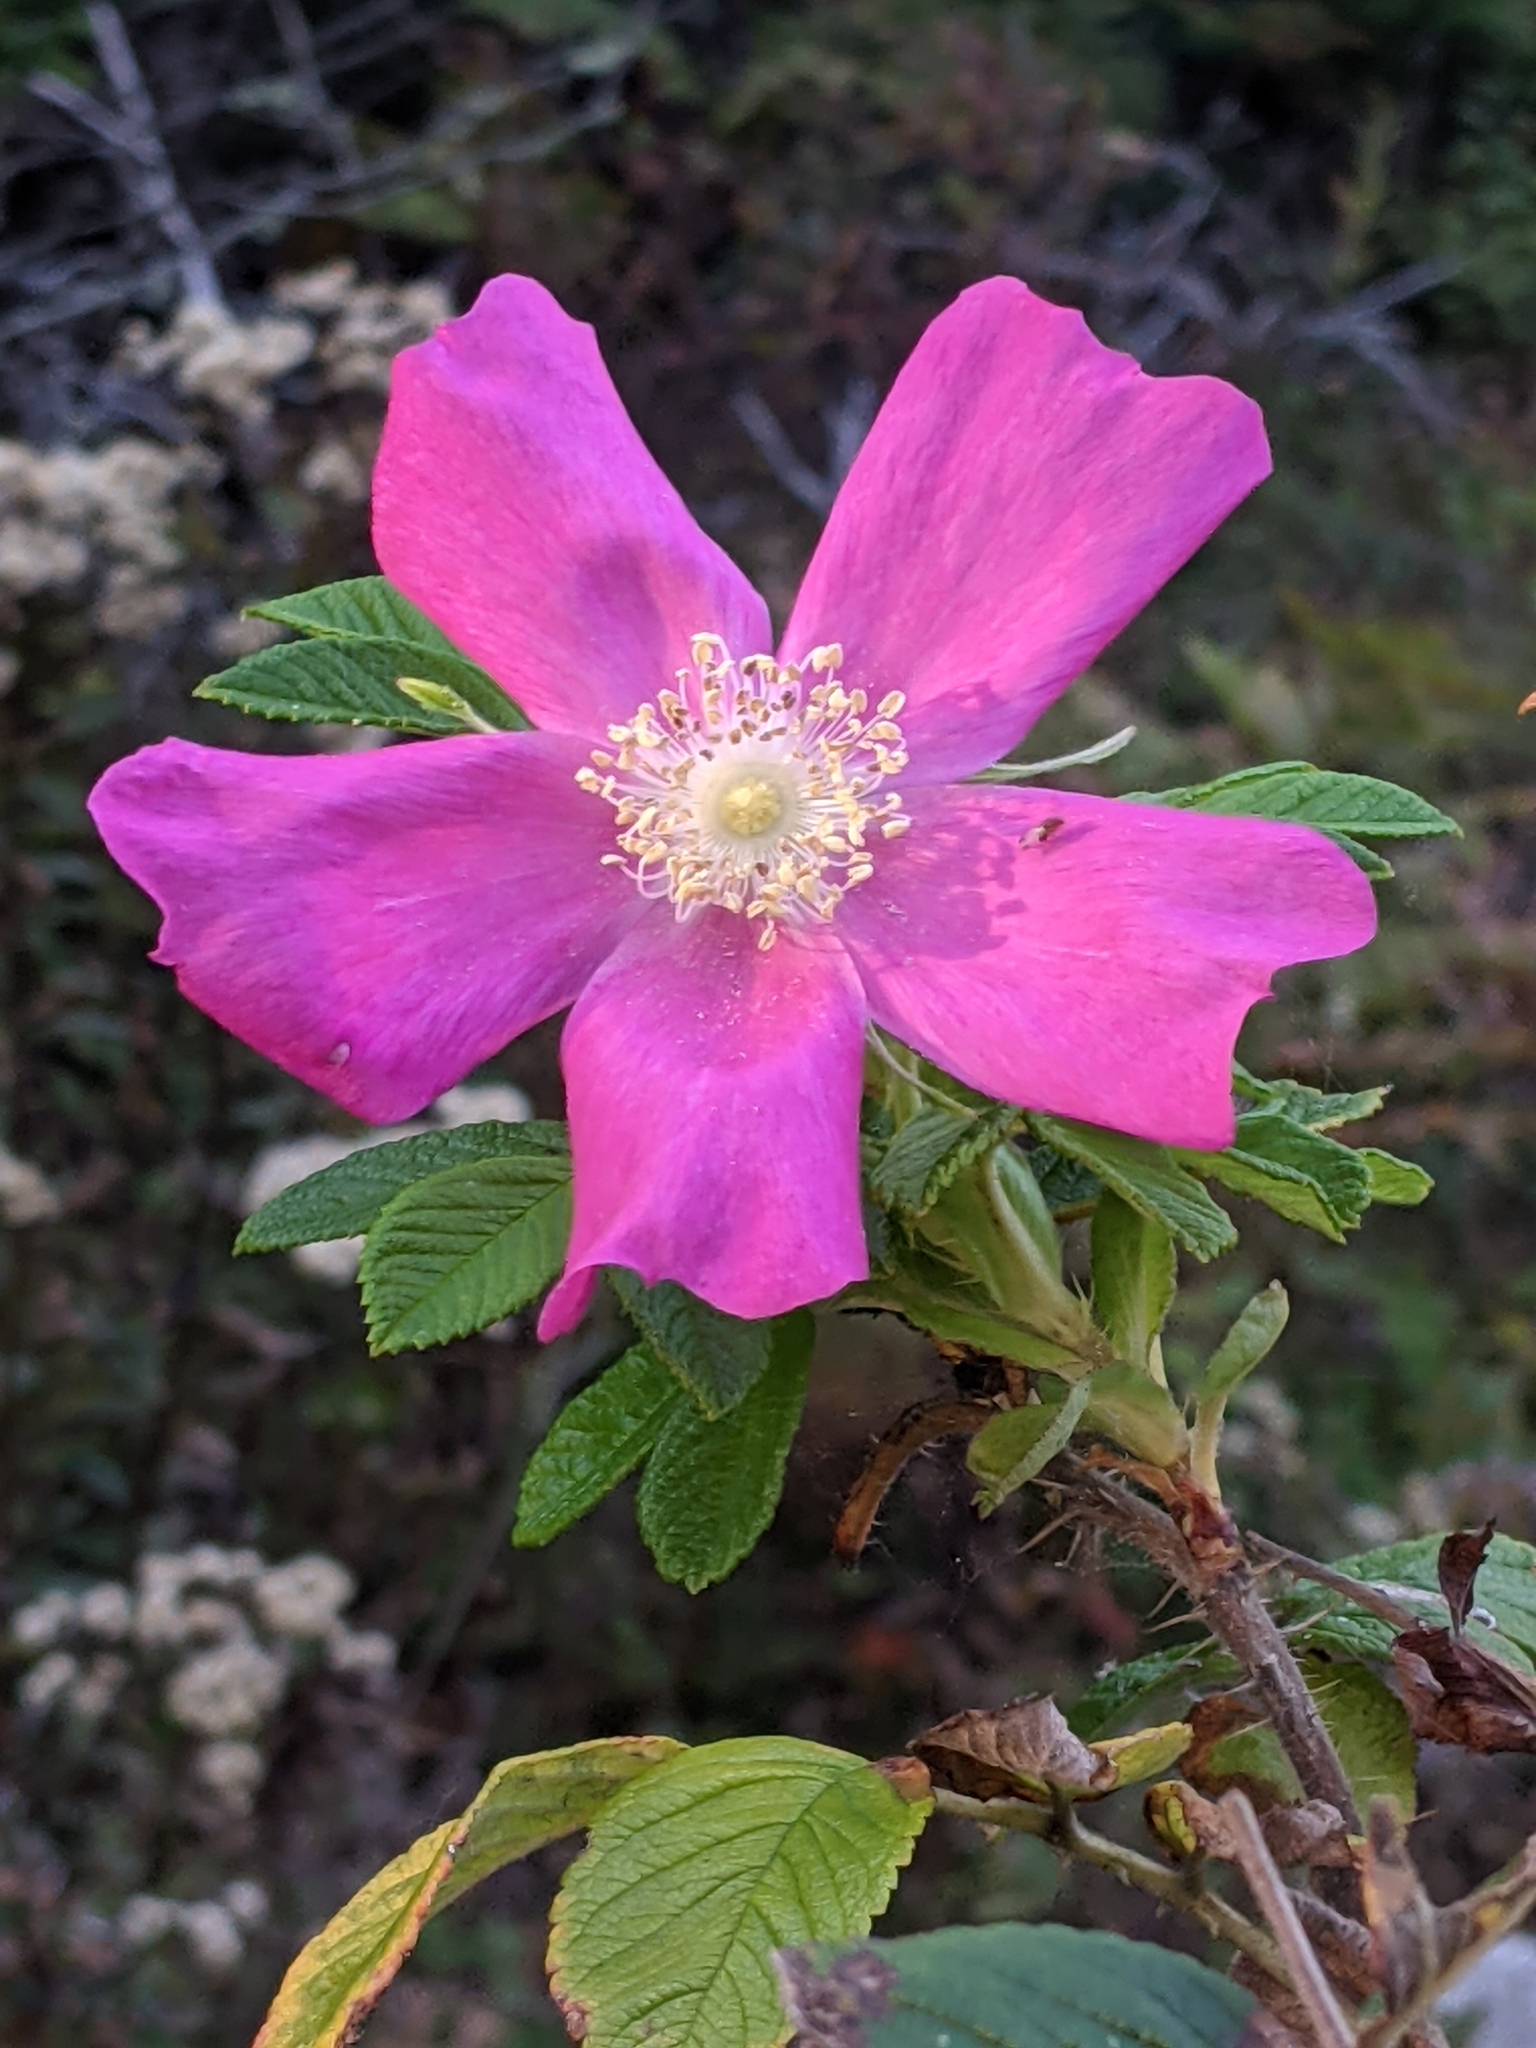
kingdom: Plantae
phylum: Tracheophyta
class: Magnoliopsida
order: Rosales
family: Rosaceae
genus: Rosa
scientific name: Rosa rugosa
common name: Japanese rose
